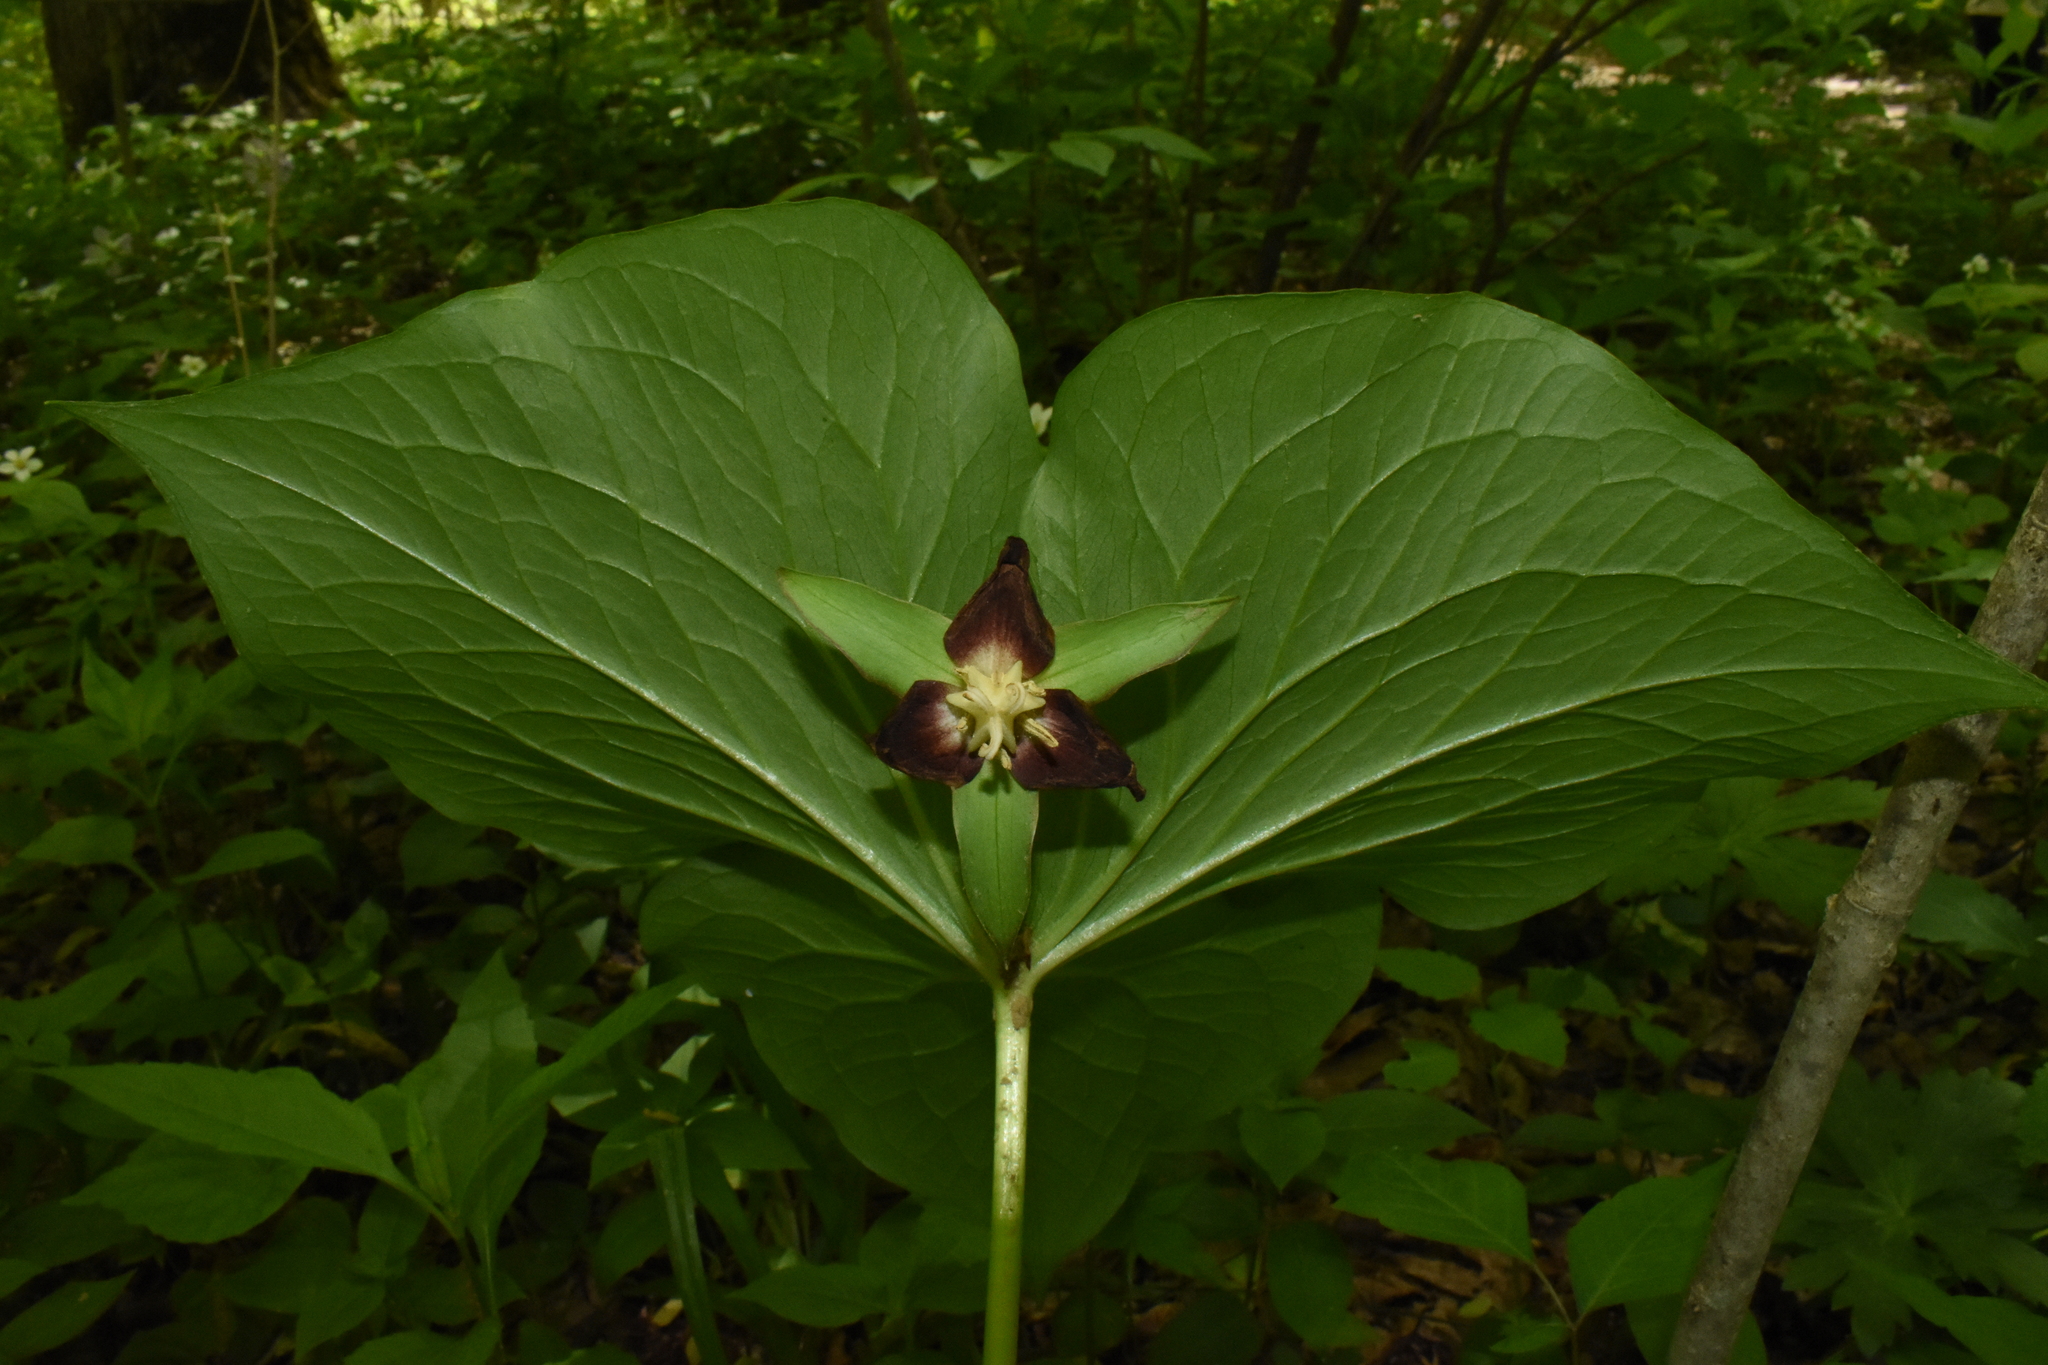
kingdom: Plantae
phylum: Tracheophyta
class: Liliopsida
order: Liliales
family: Melanthiaceae
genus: Trillium
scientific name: Trillium flexipes
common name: Drooping trillium
